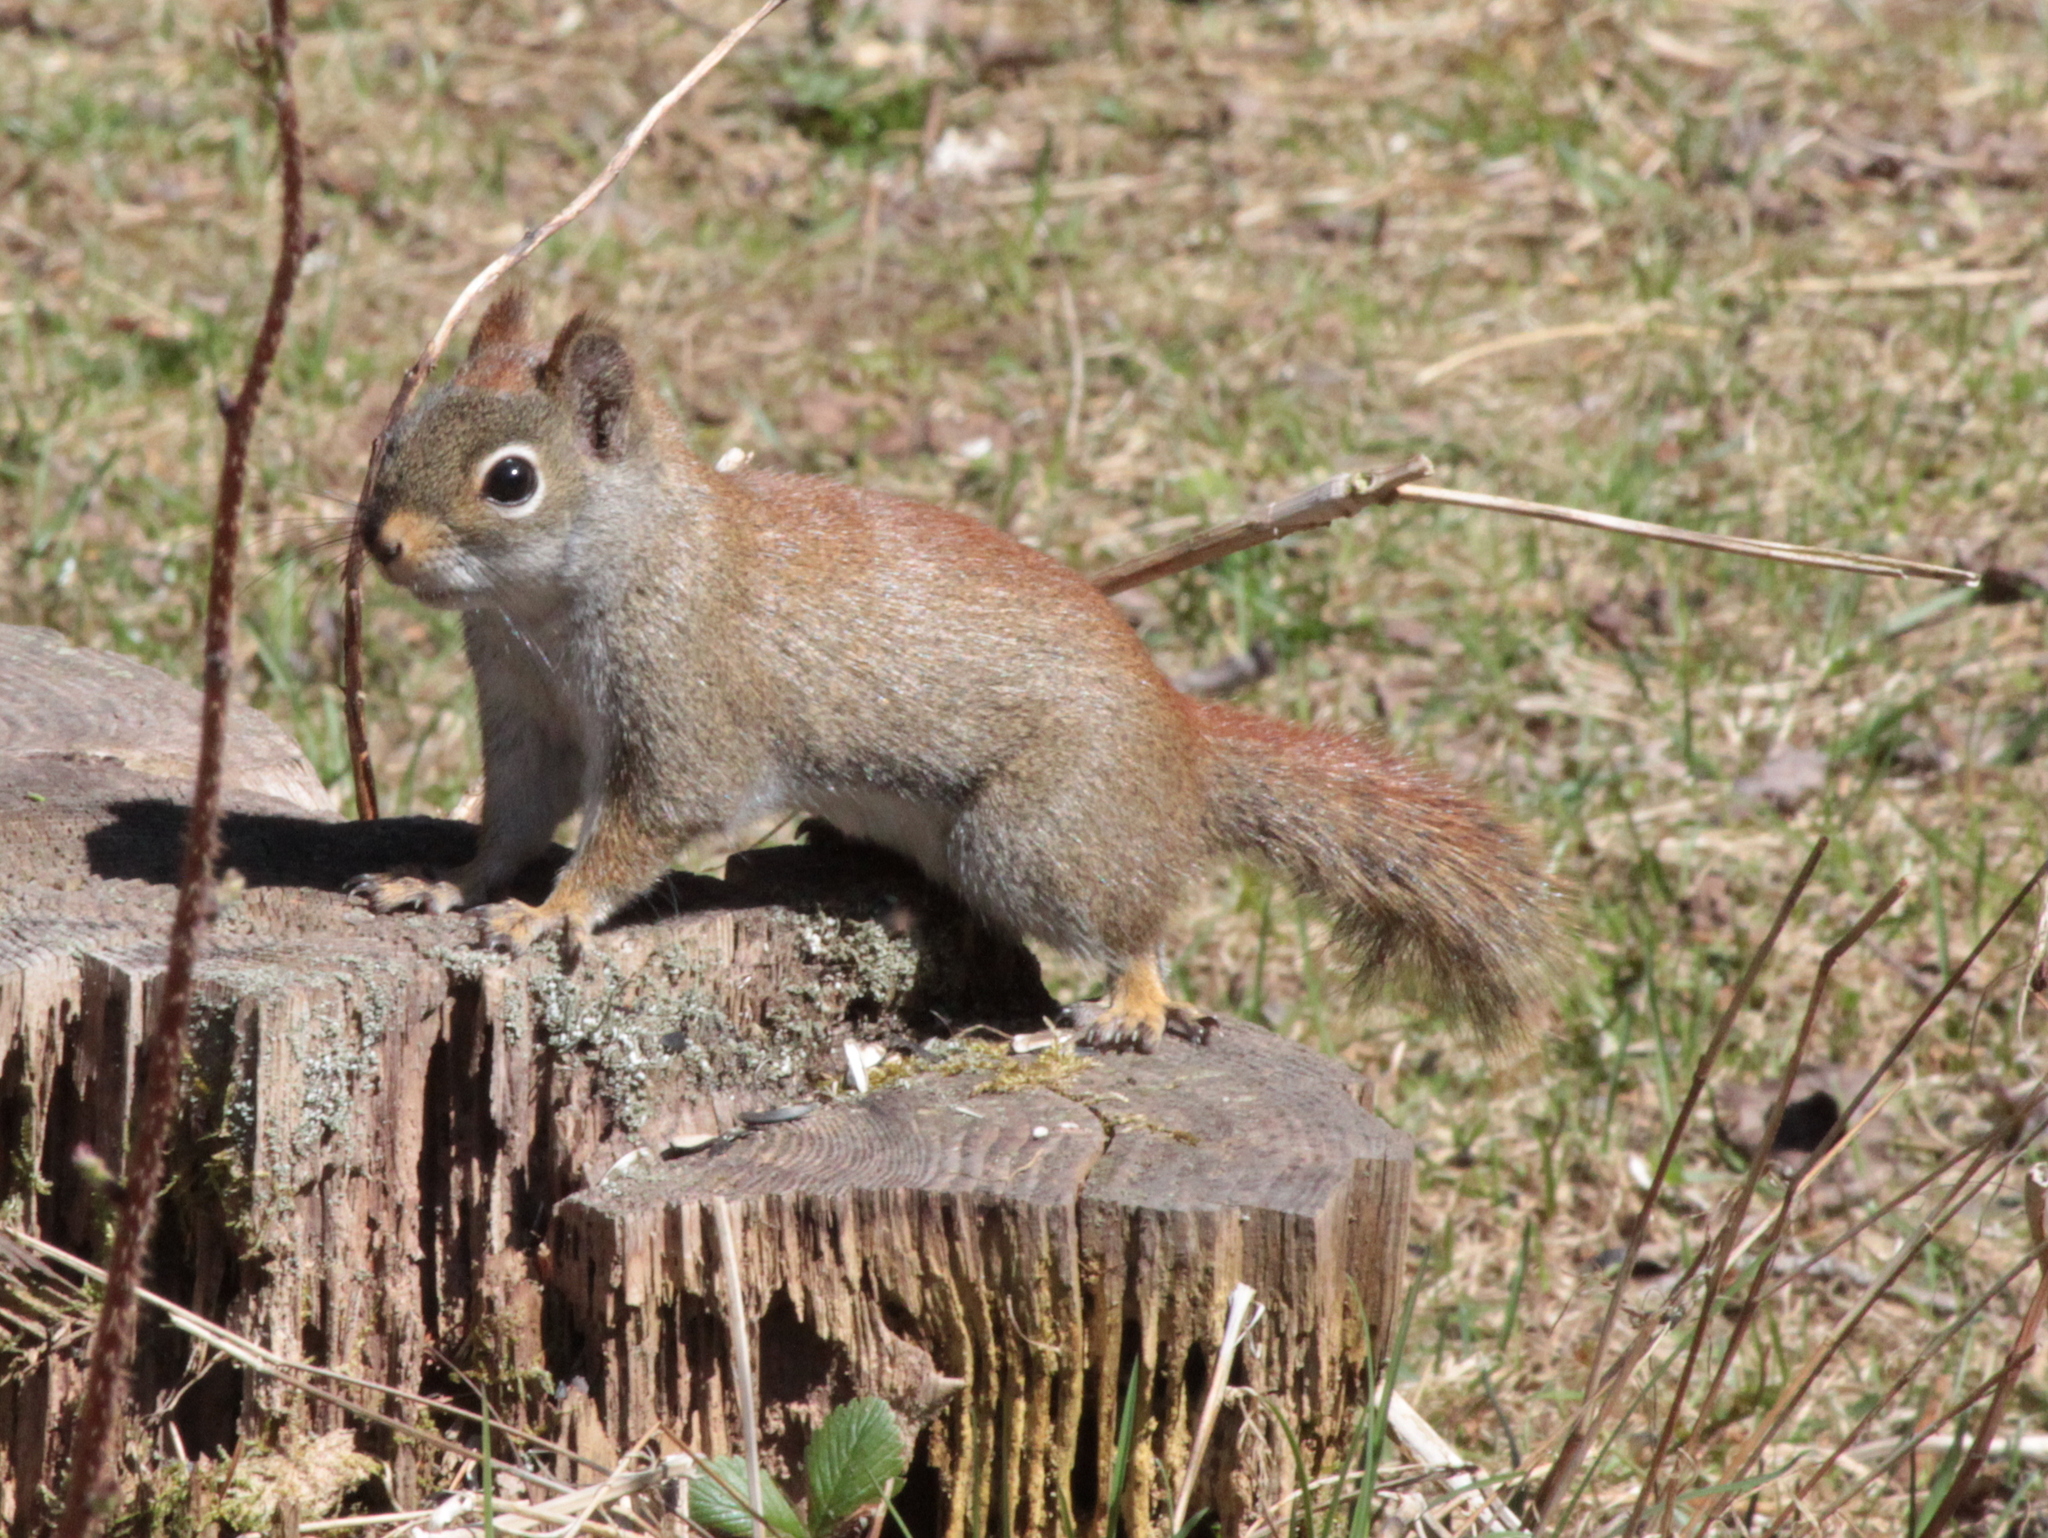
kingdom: Animalia
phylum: Chordata
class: Mammalia
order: Rodentia
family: Sciuridae
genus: Tamiasciurus
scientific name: Tamiasciurus hudsonicus
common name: Red squirrel
